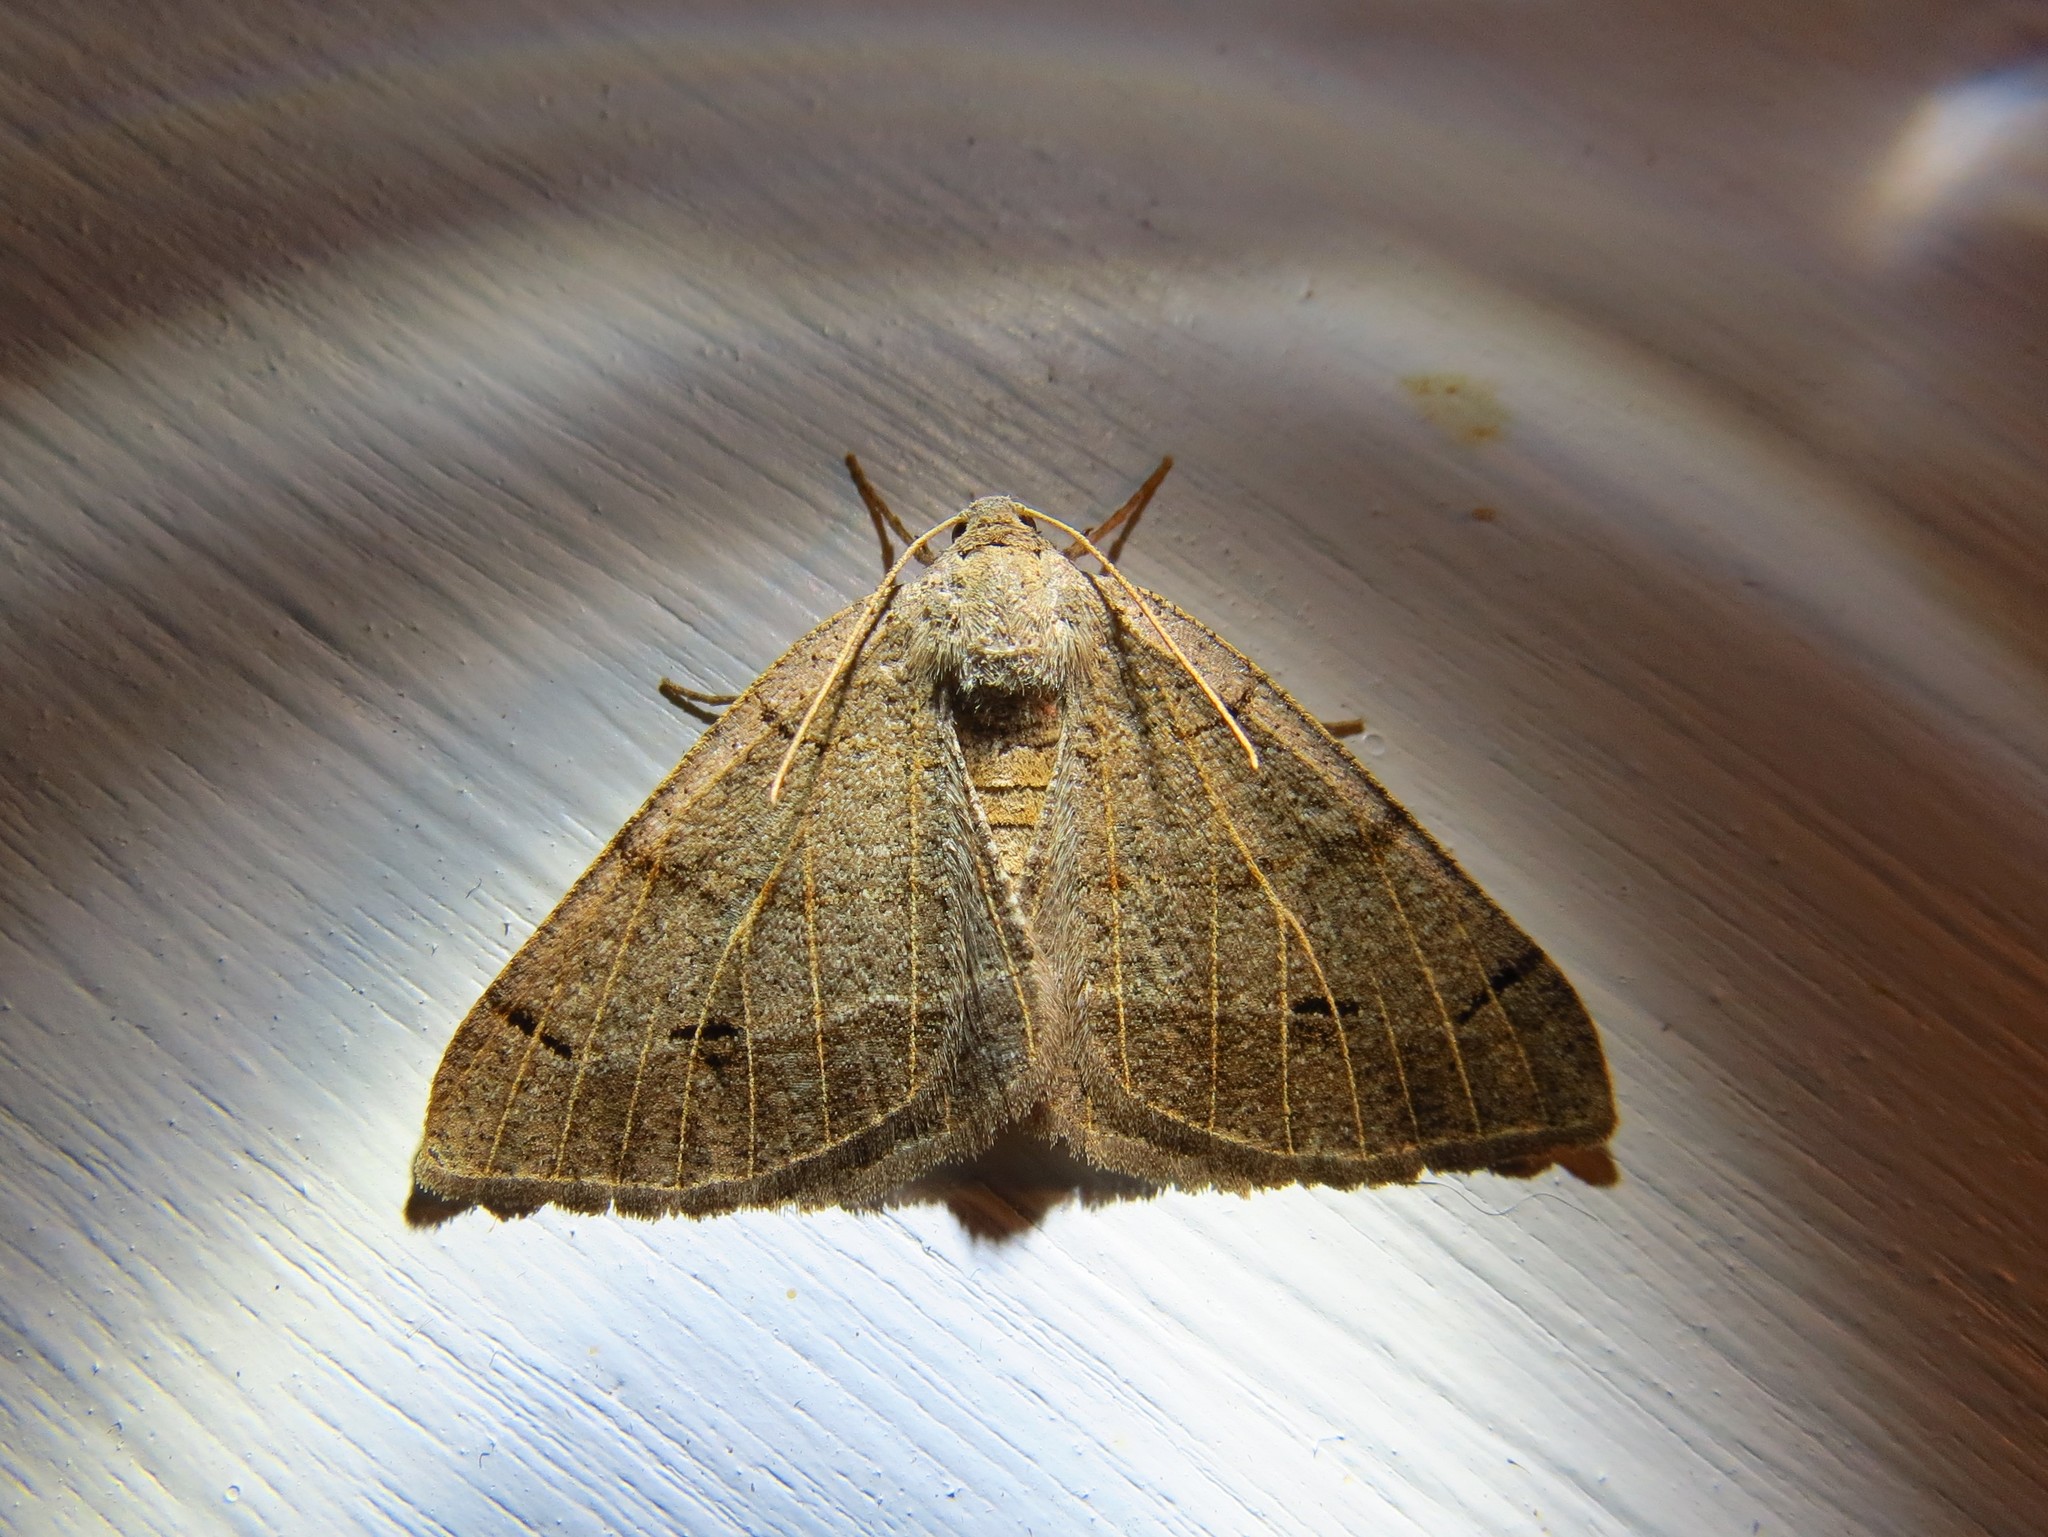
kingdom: Animalia
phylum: Arthropoda
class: Insecta
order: Lepidoptera
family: Geometridae
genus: Isturgia
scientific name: Isturgia dislocaria
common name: Pale-viened enconista
